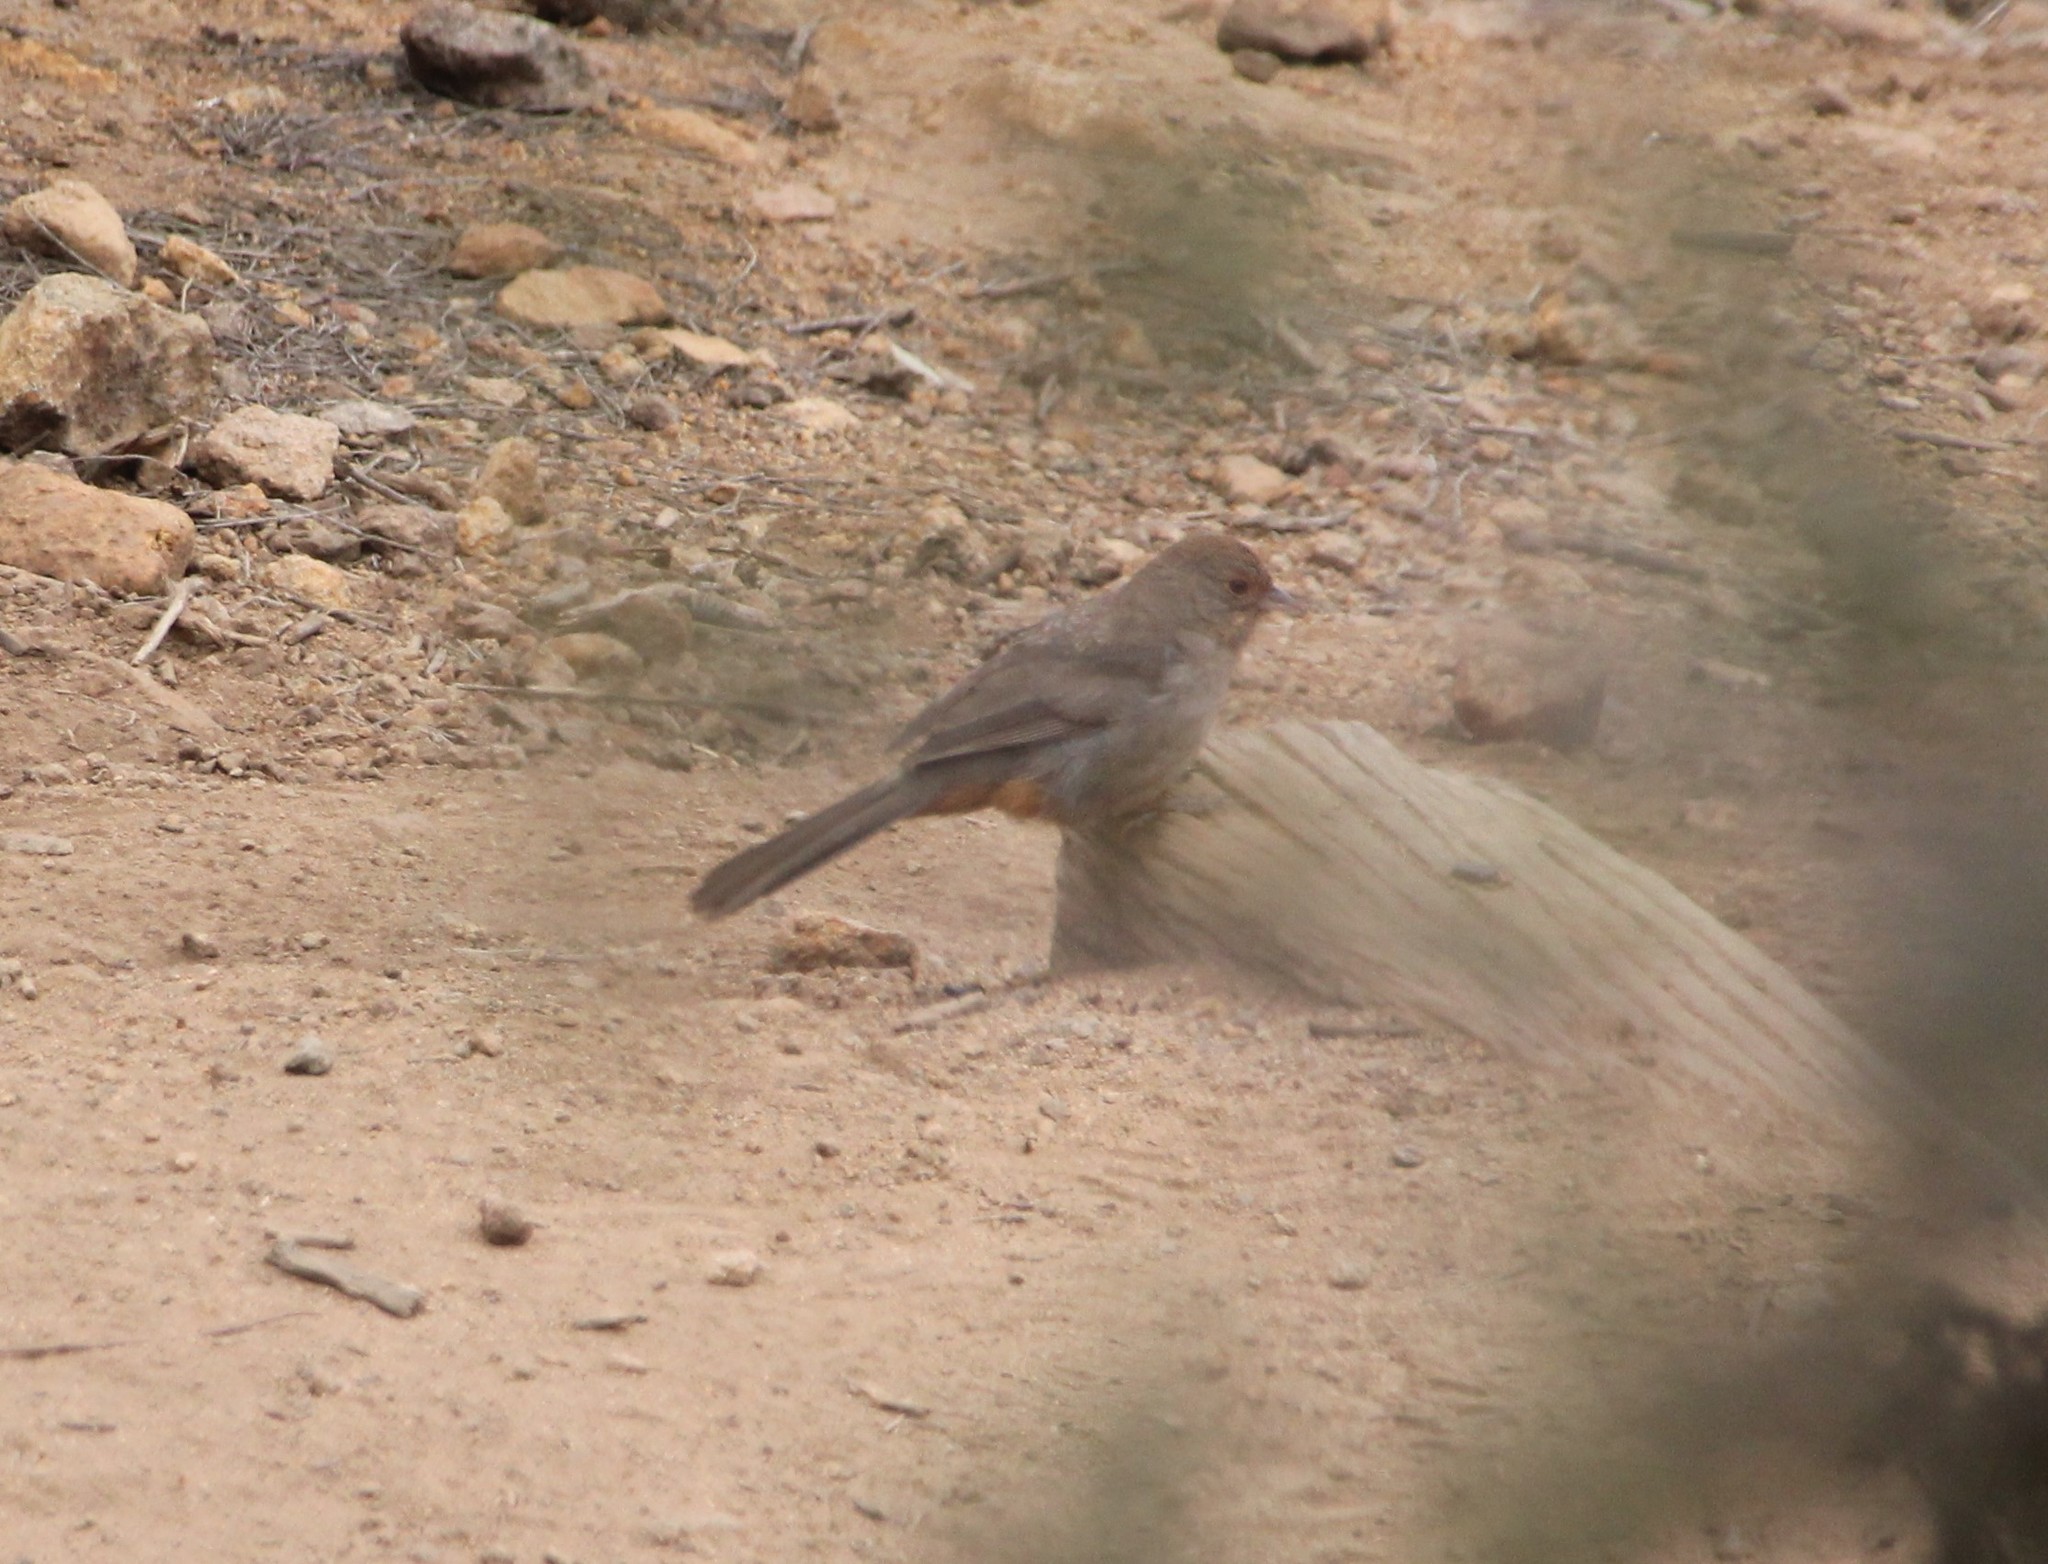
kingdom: Animalia
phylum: Chordata
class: Aves
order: Passeriformes
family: Passerellidae
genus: Melozone
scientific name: Melozone crissalis
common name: California towhee
